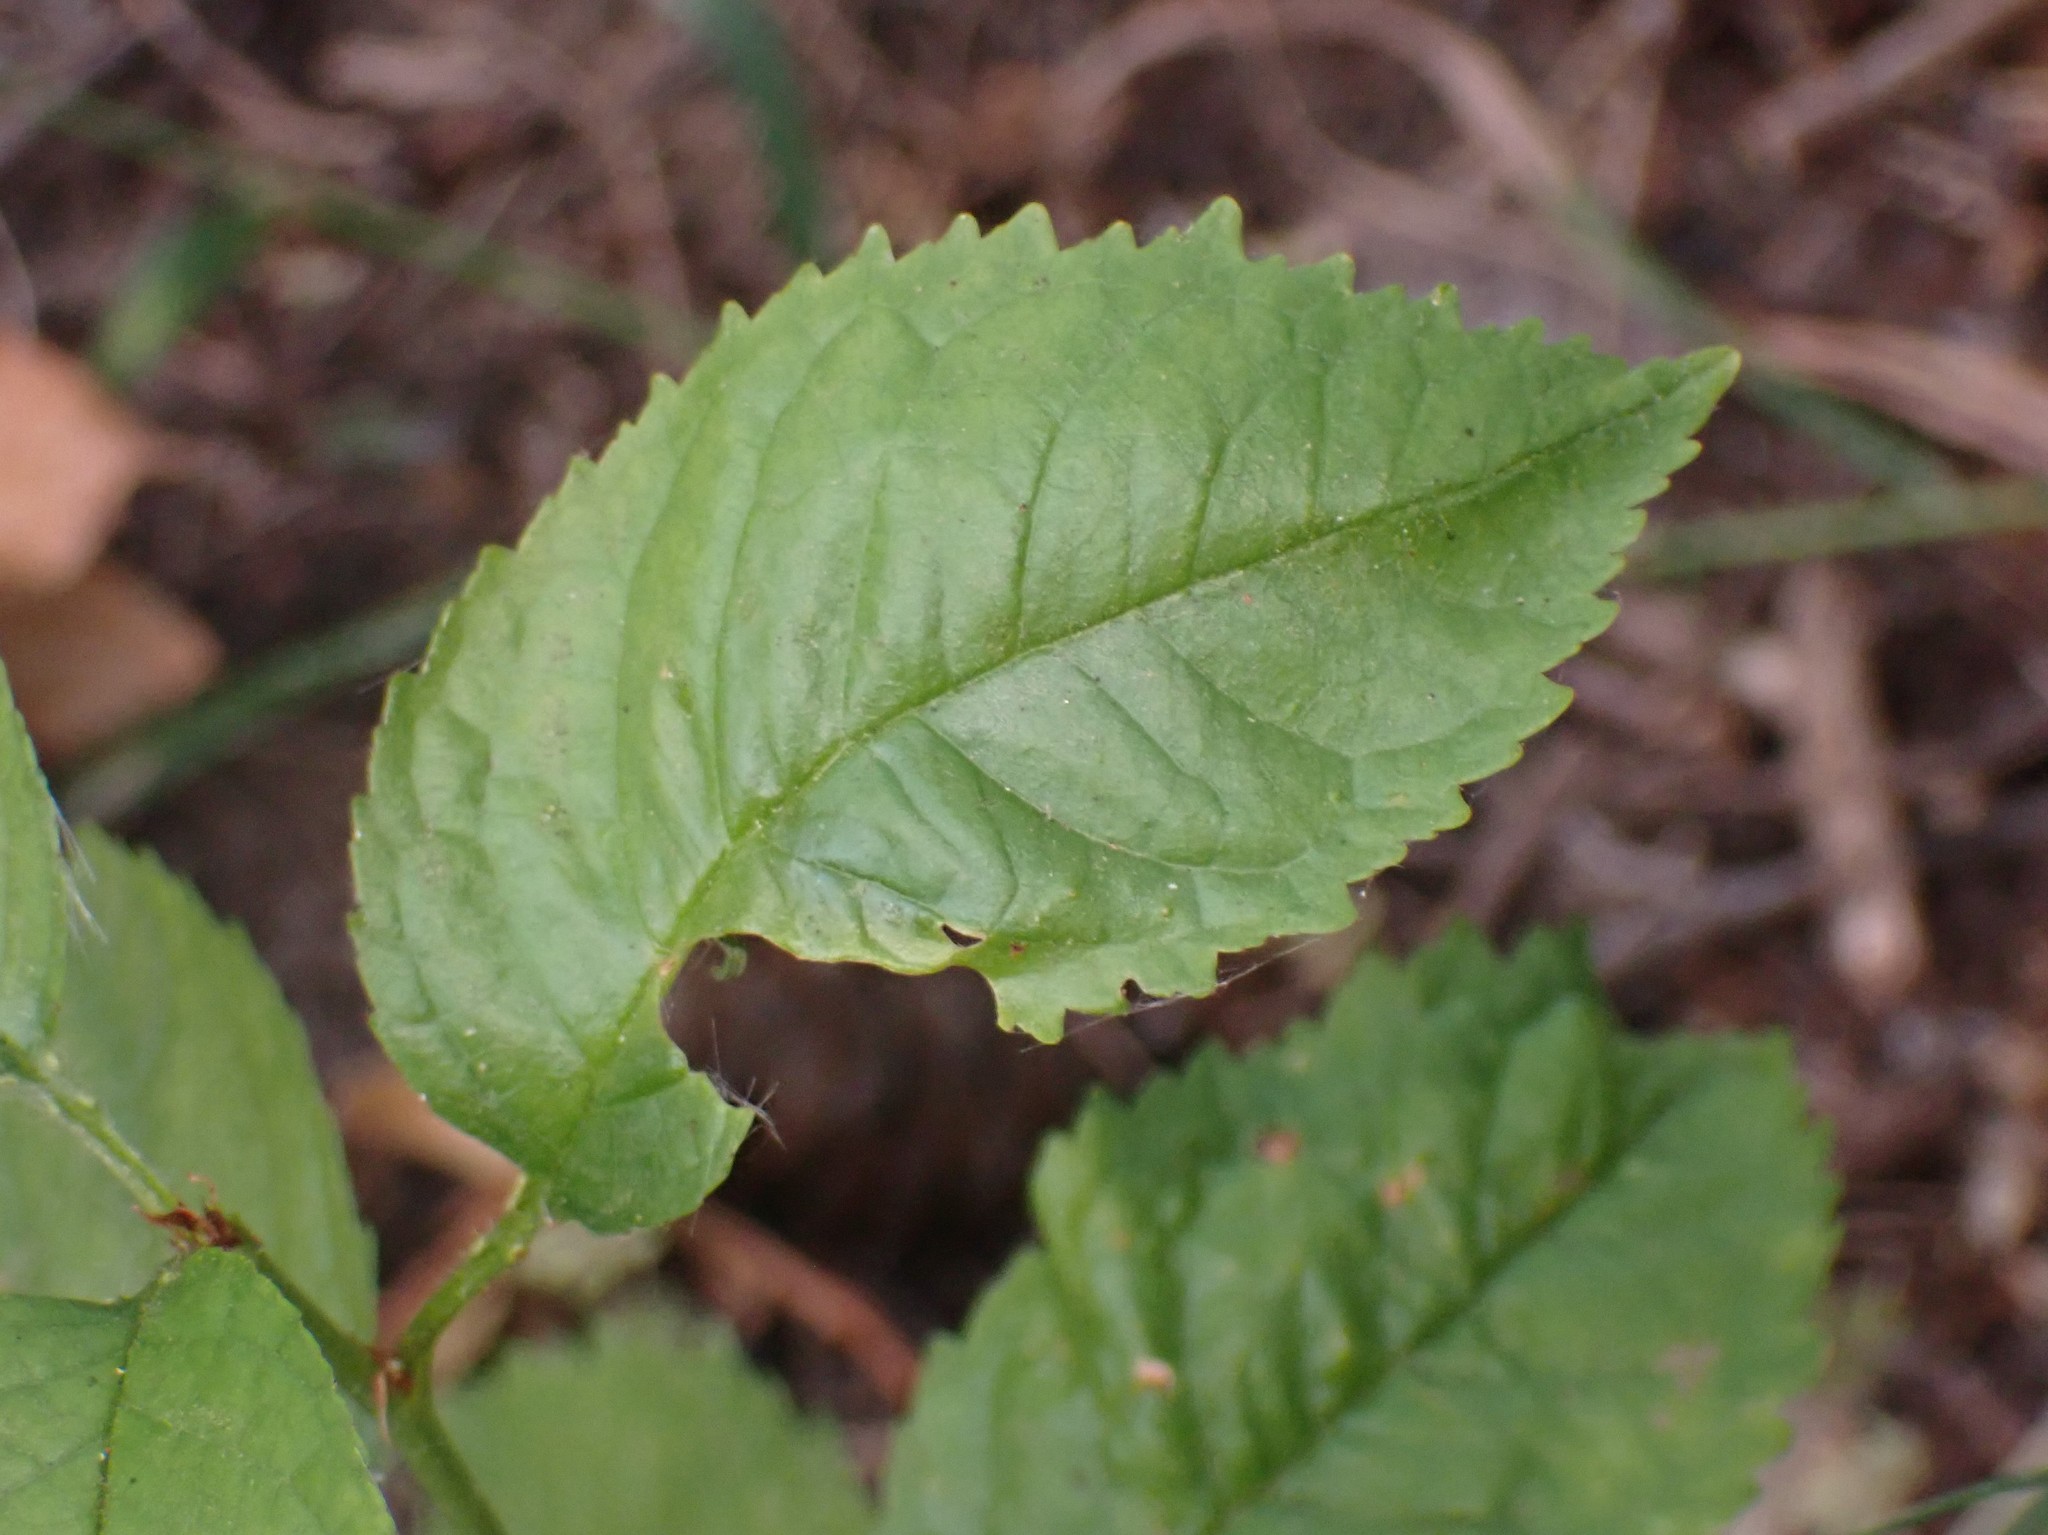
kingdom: Plantae
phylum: Tracheophyta
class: Magnoliopsida
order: Rosales
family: Rosaceae
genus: Prunus
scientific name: Prunus avium
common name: Sweet cherry
